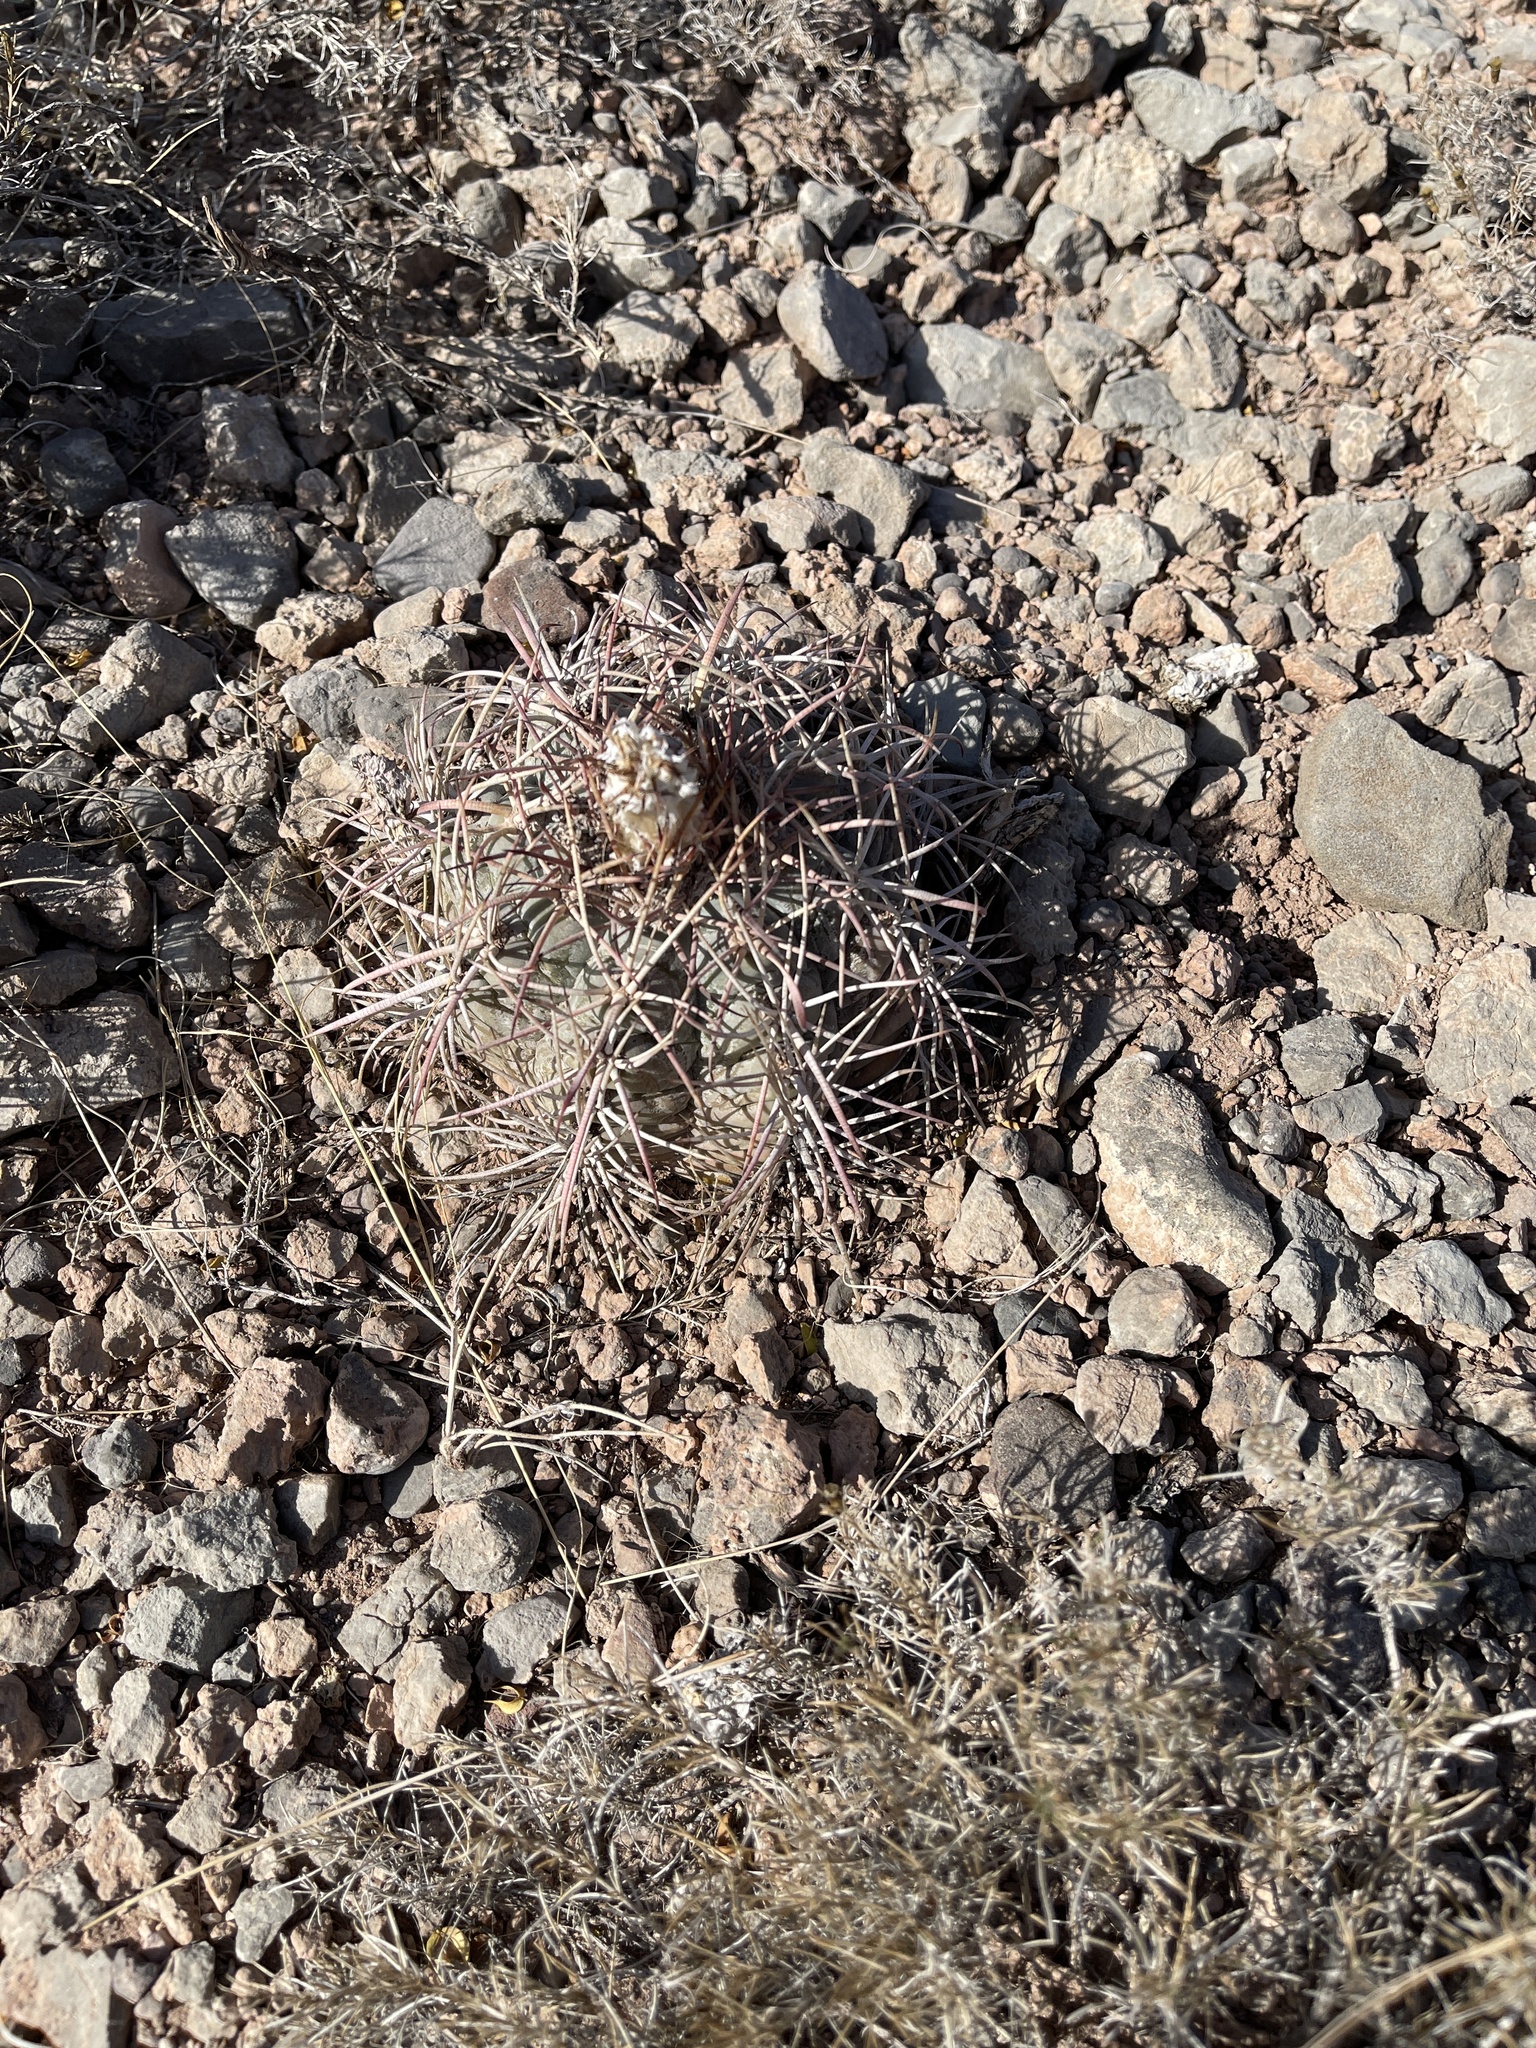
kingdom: Plantae
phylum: Tracheophyta
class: Magnoliopsida
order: Caryophyllales
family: Cactaceae
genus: Echinocactus
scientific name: Echinocactus horizonthalonius
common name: Devilshead
